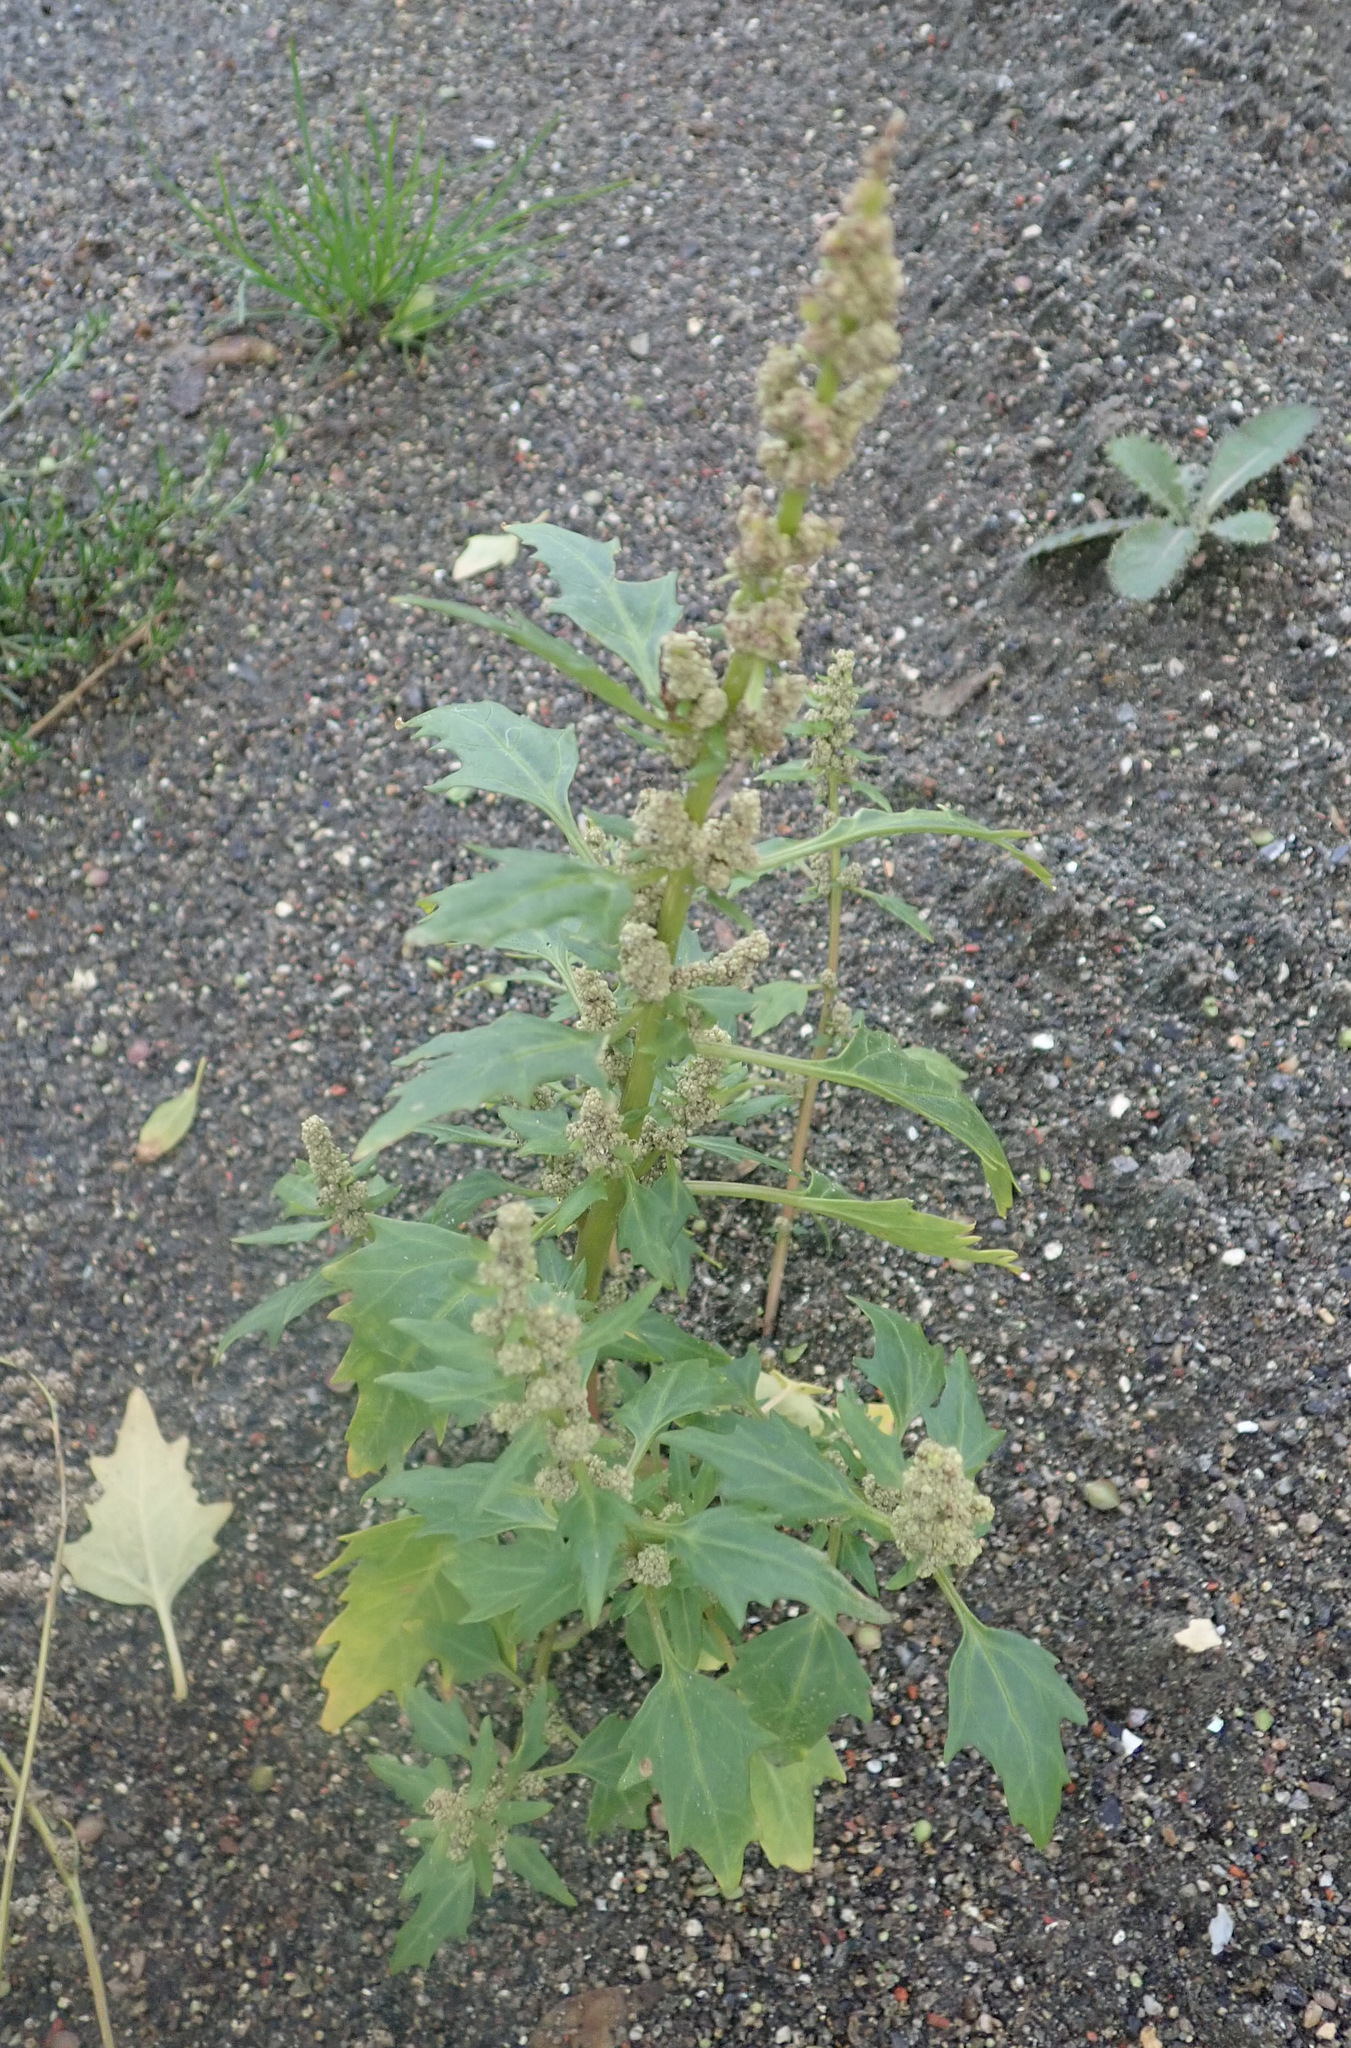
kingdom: Plantae
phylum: Tracheophyta
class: Magnoliopsida
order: Caryophyllales
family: Amaranthaceae
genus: Oxybasis
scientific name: Oxybasis rubra
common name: Red goosefoot
